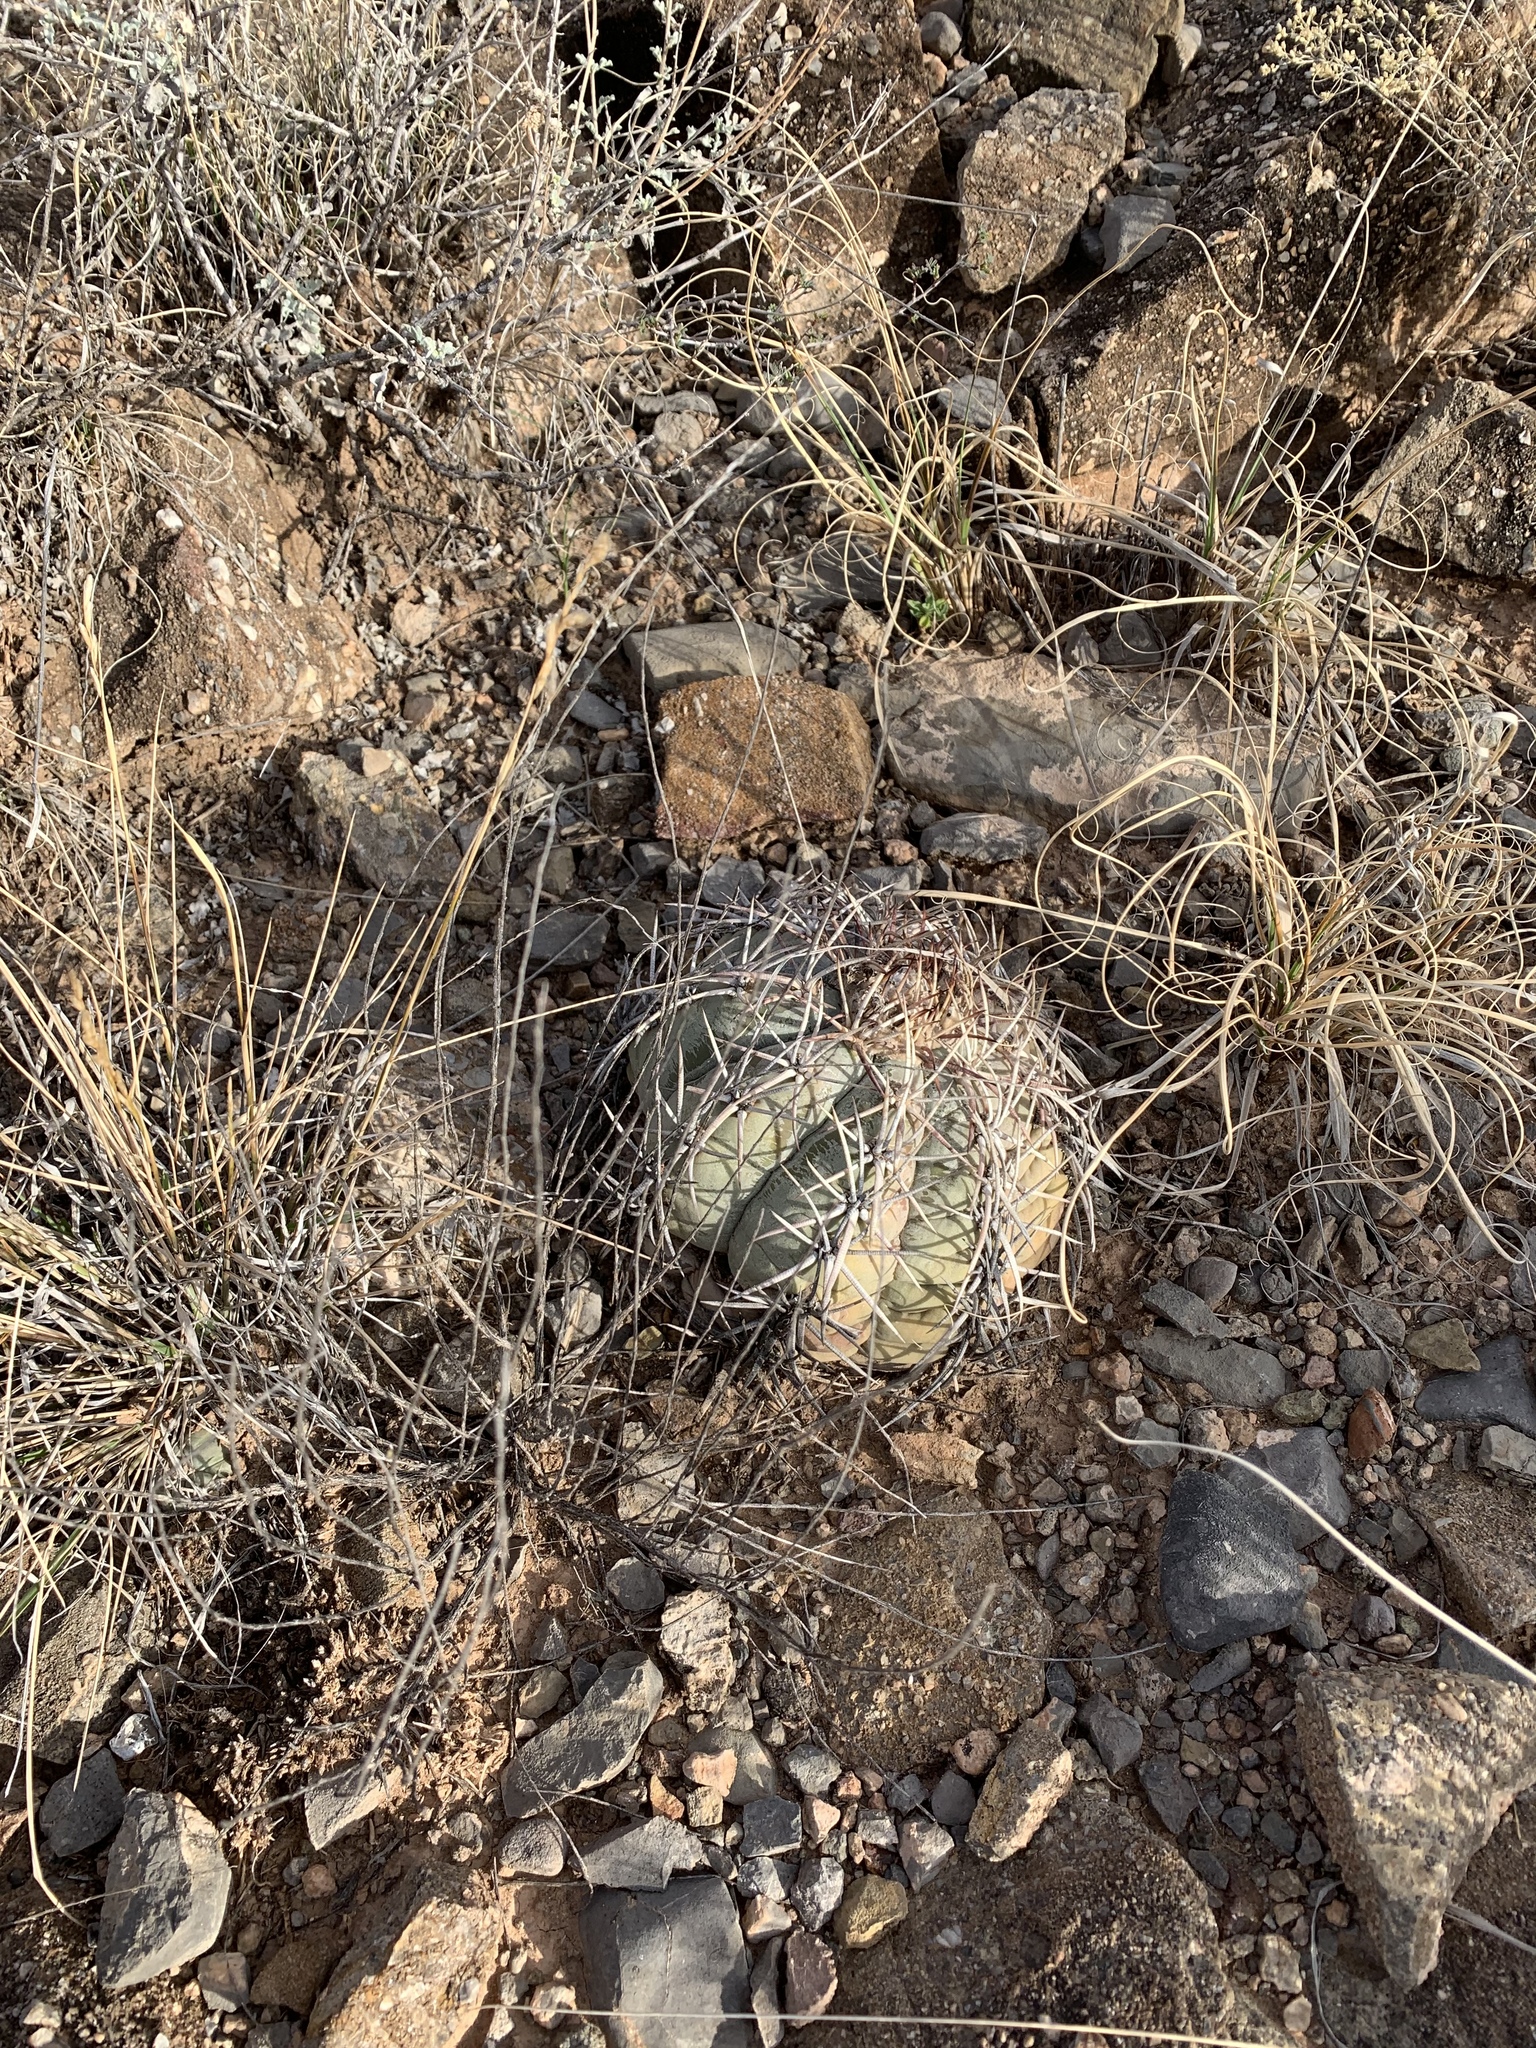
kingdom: Plantae
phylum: Tracheophyta
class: Magnoliopsida
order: Caryophyllales
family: Cactaceae
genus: Echinocactus
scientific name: Echinocactus horizonthalonius
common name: Devilshead
